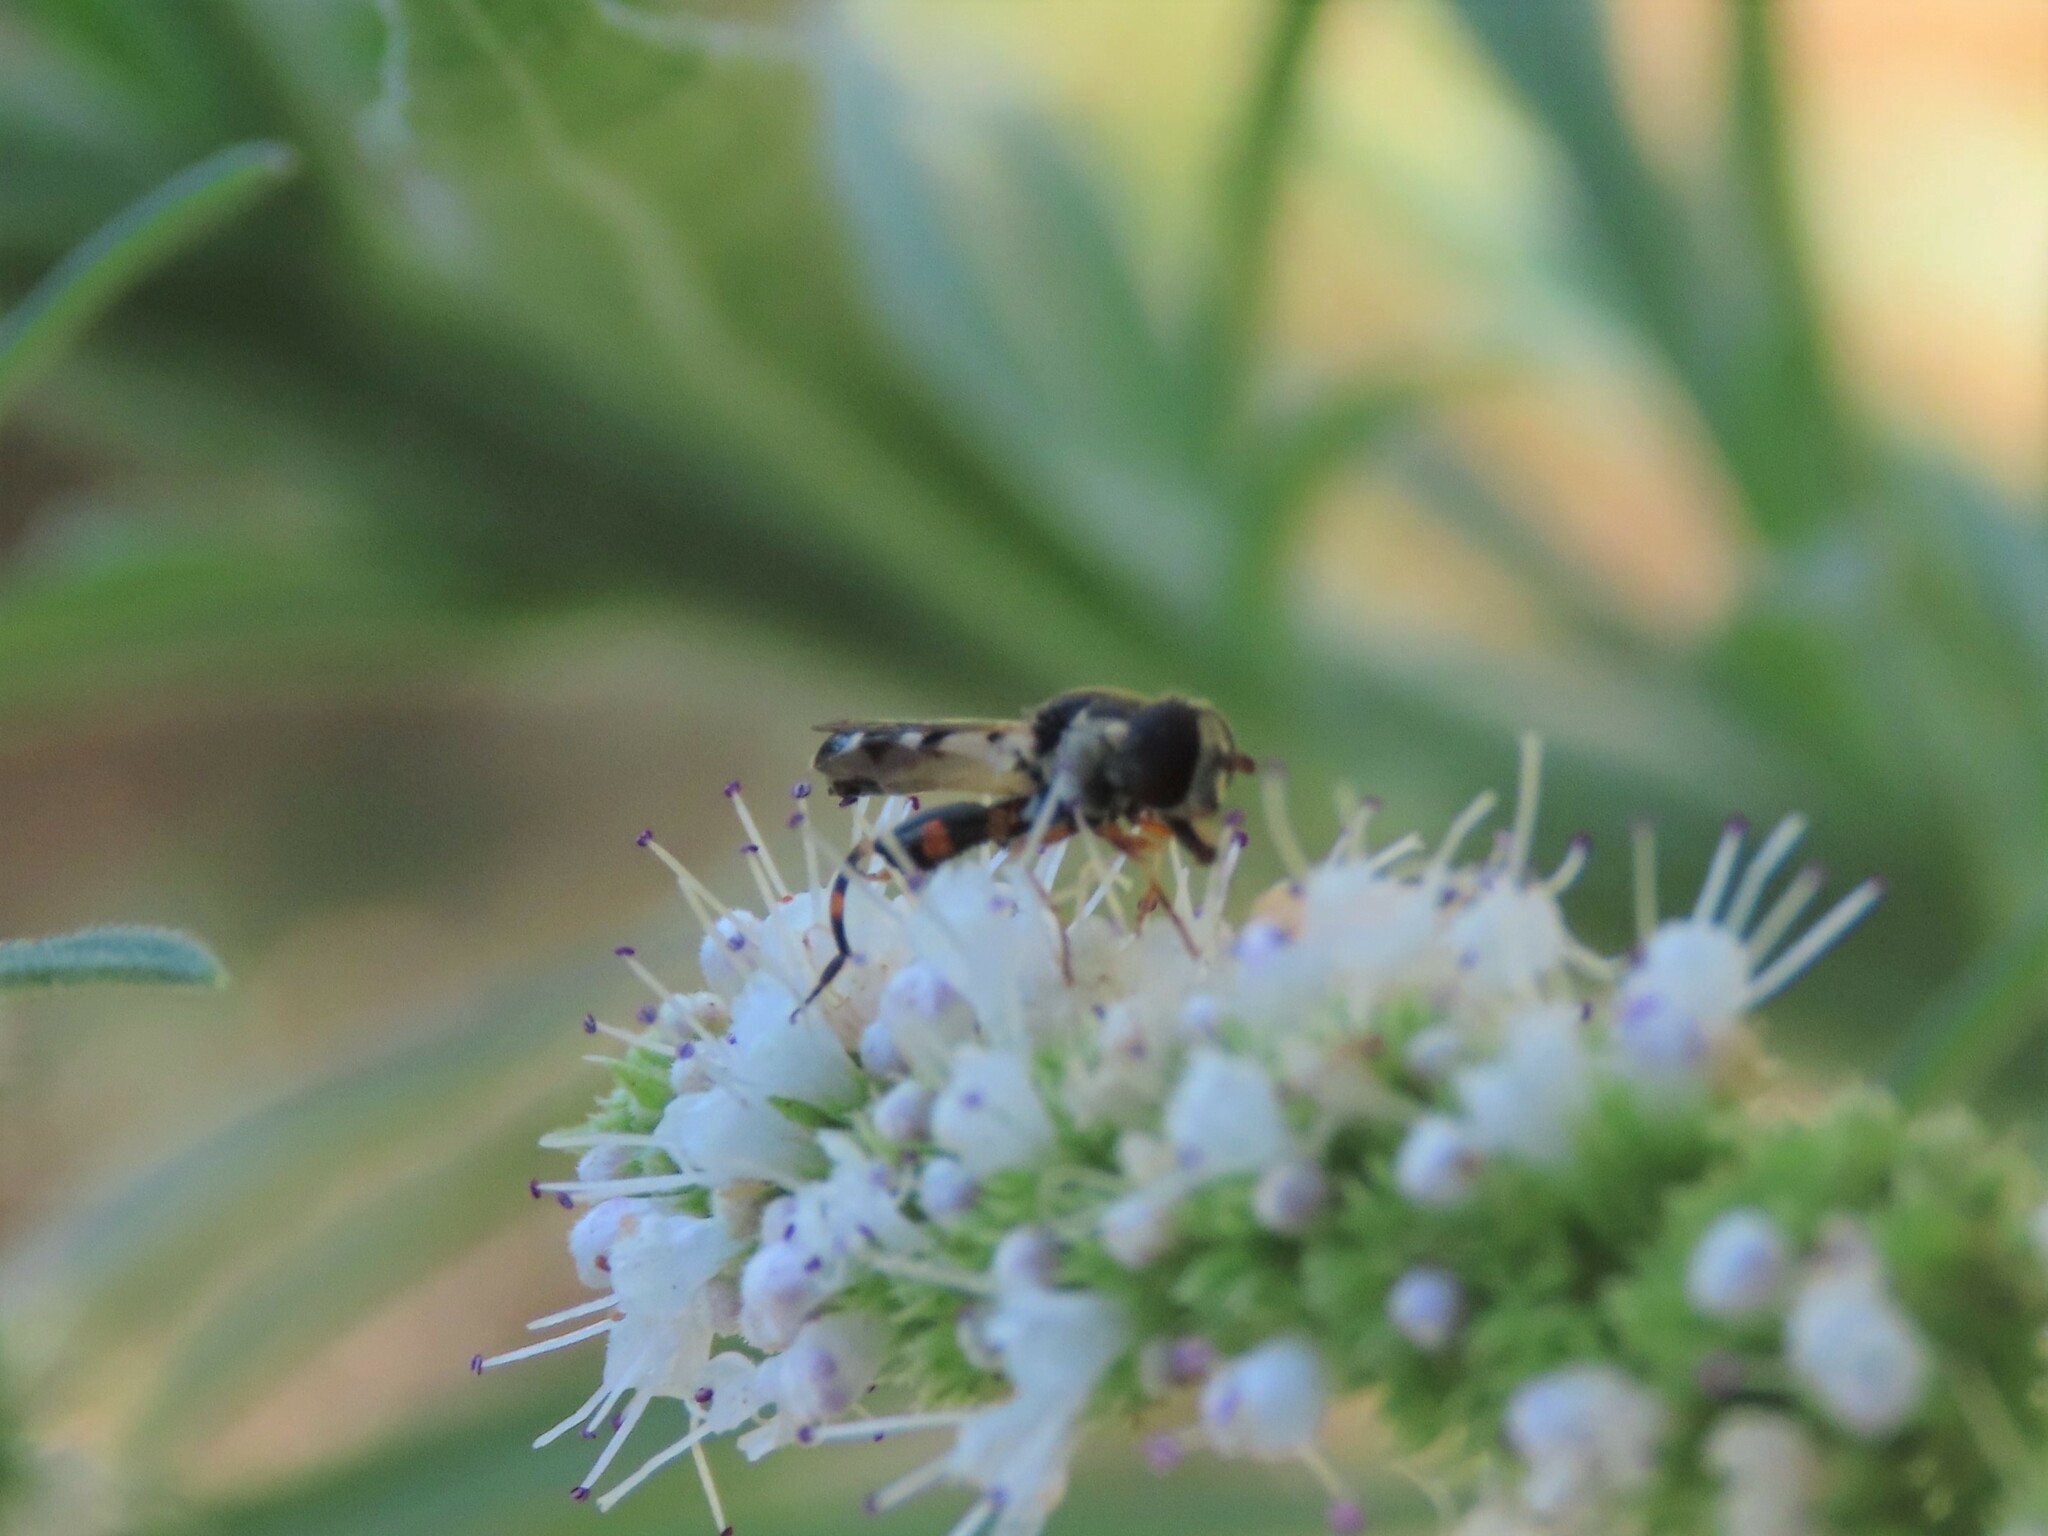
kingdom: Animalia
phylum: Arthropoda
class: Insecta
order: Diptera
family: Syrphidae
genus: Syritta
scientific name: Syritta pipiens
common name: Hover fly
